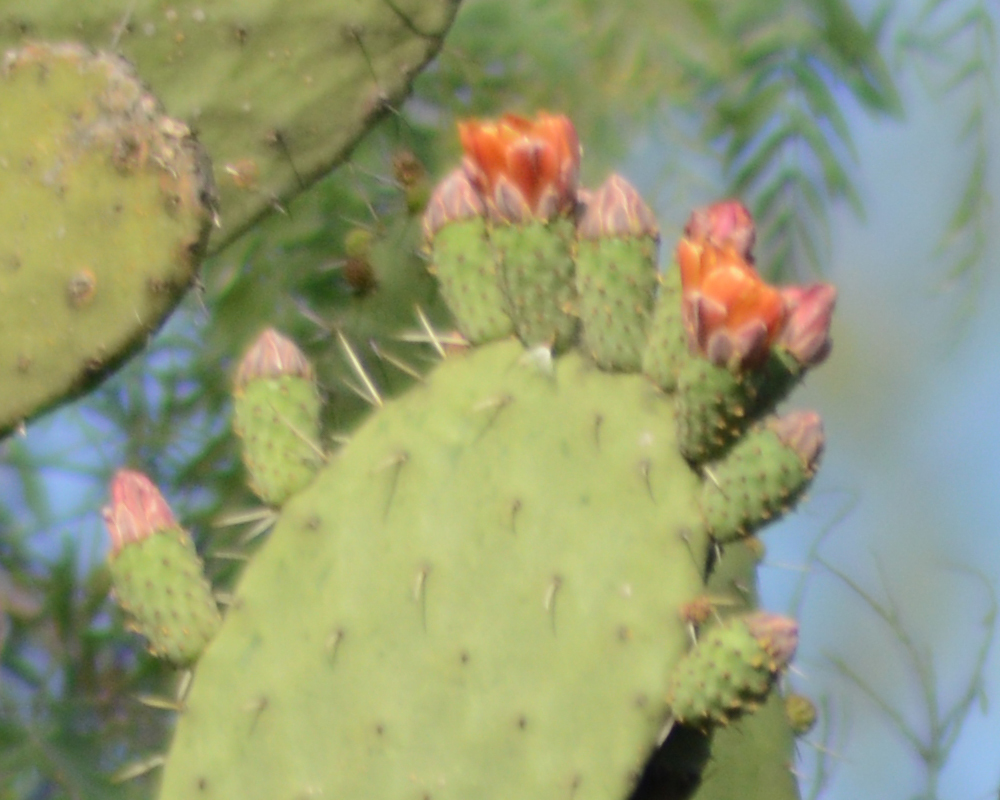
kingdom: Plantae
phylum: Tracheophyta
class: Magnoliopsida
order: Caryophyllales
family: Cactaceae
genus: Opuntia
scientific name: Opuntia tomentosa
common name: Woollyjoint pricklypear
